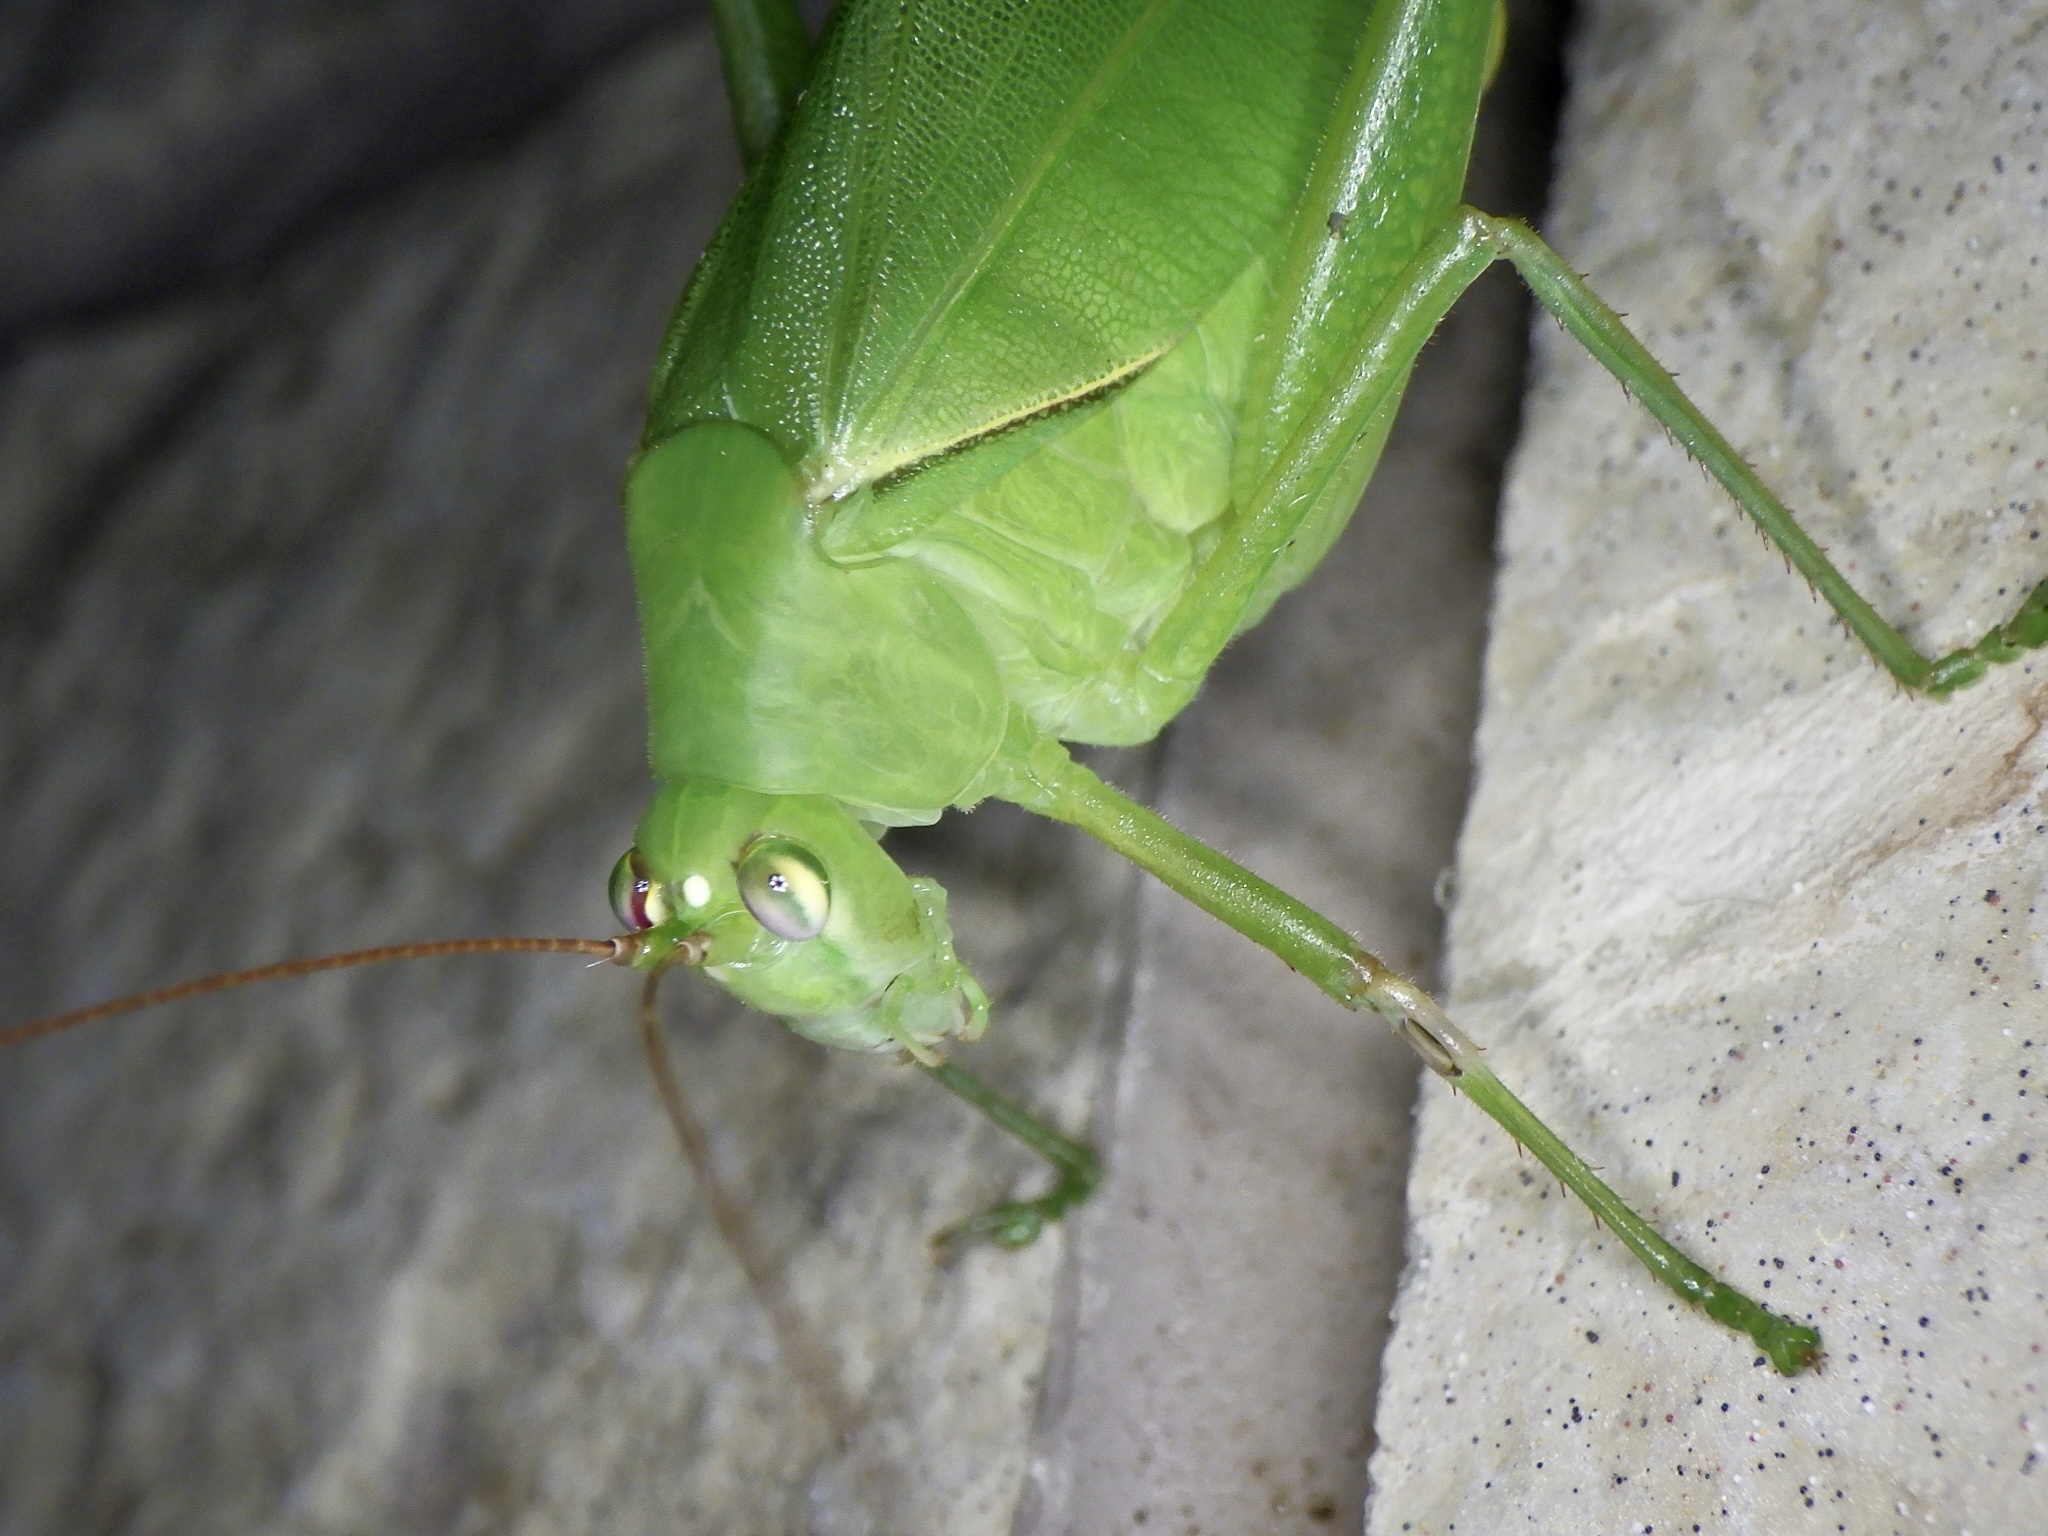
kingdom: Animalia
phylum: Arthropoda
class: Insecta
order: Orthoptera
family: Tettigoniidae
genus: Holochlora
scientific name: Holochlora japonica
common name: Japanese broadwinged katydid
